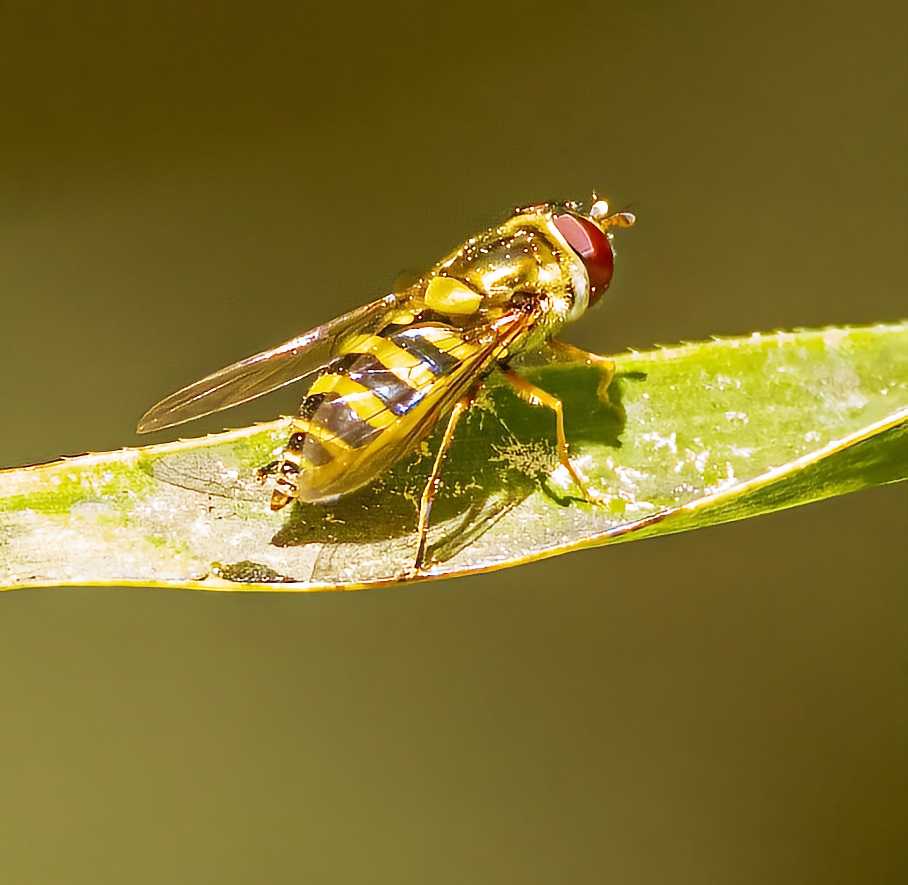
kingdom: Animalia
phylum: Arthropoda
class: Insecta
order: Diptera
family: Syrphidae
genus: Syrphus
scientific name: Syrphus
